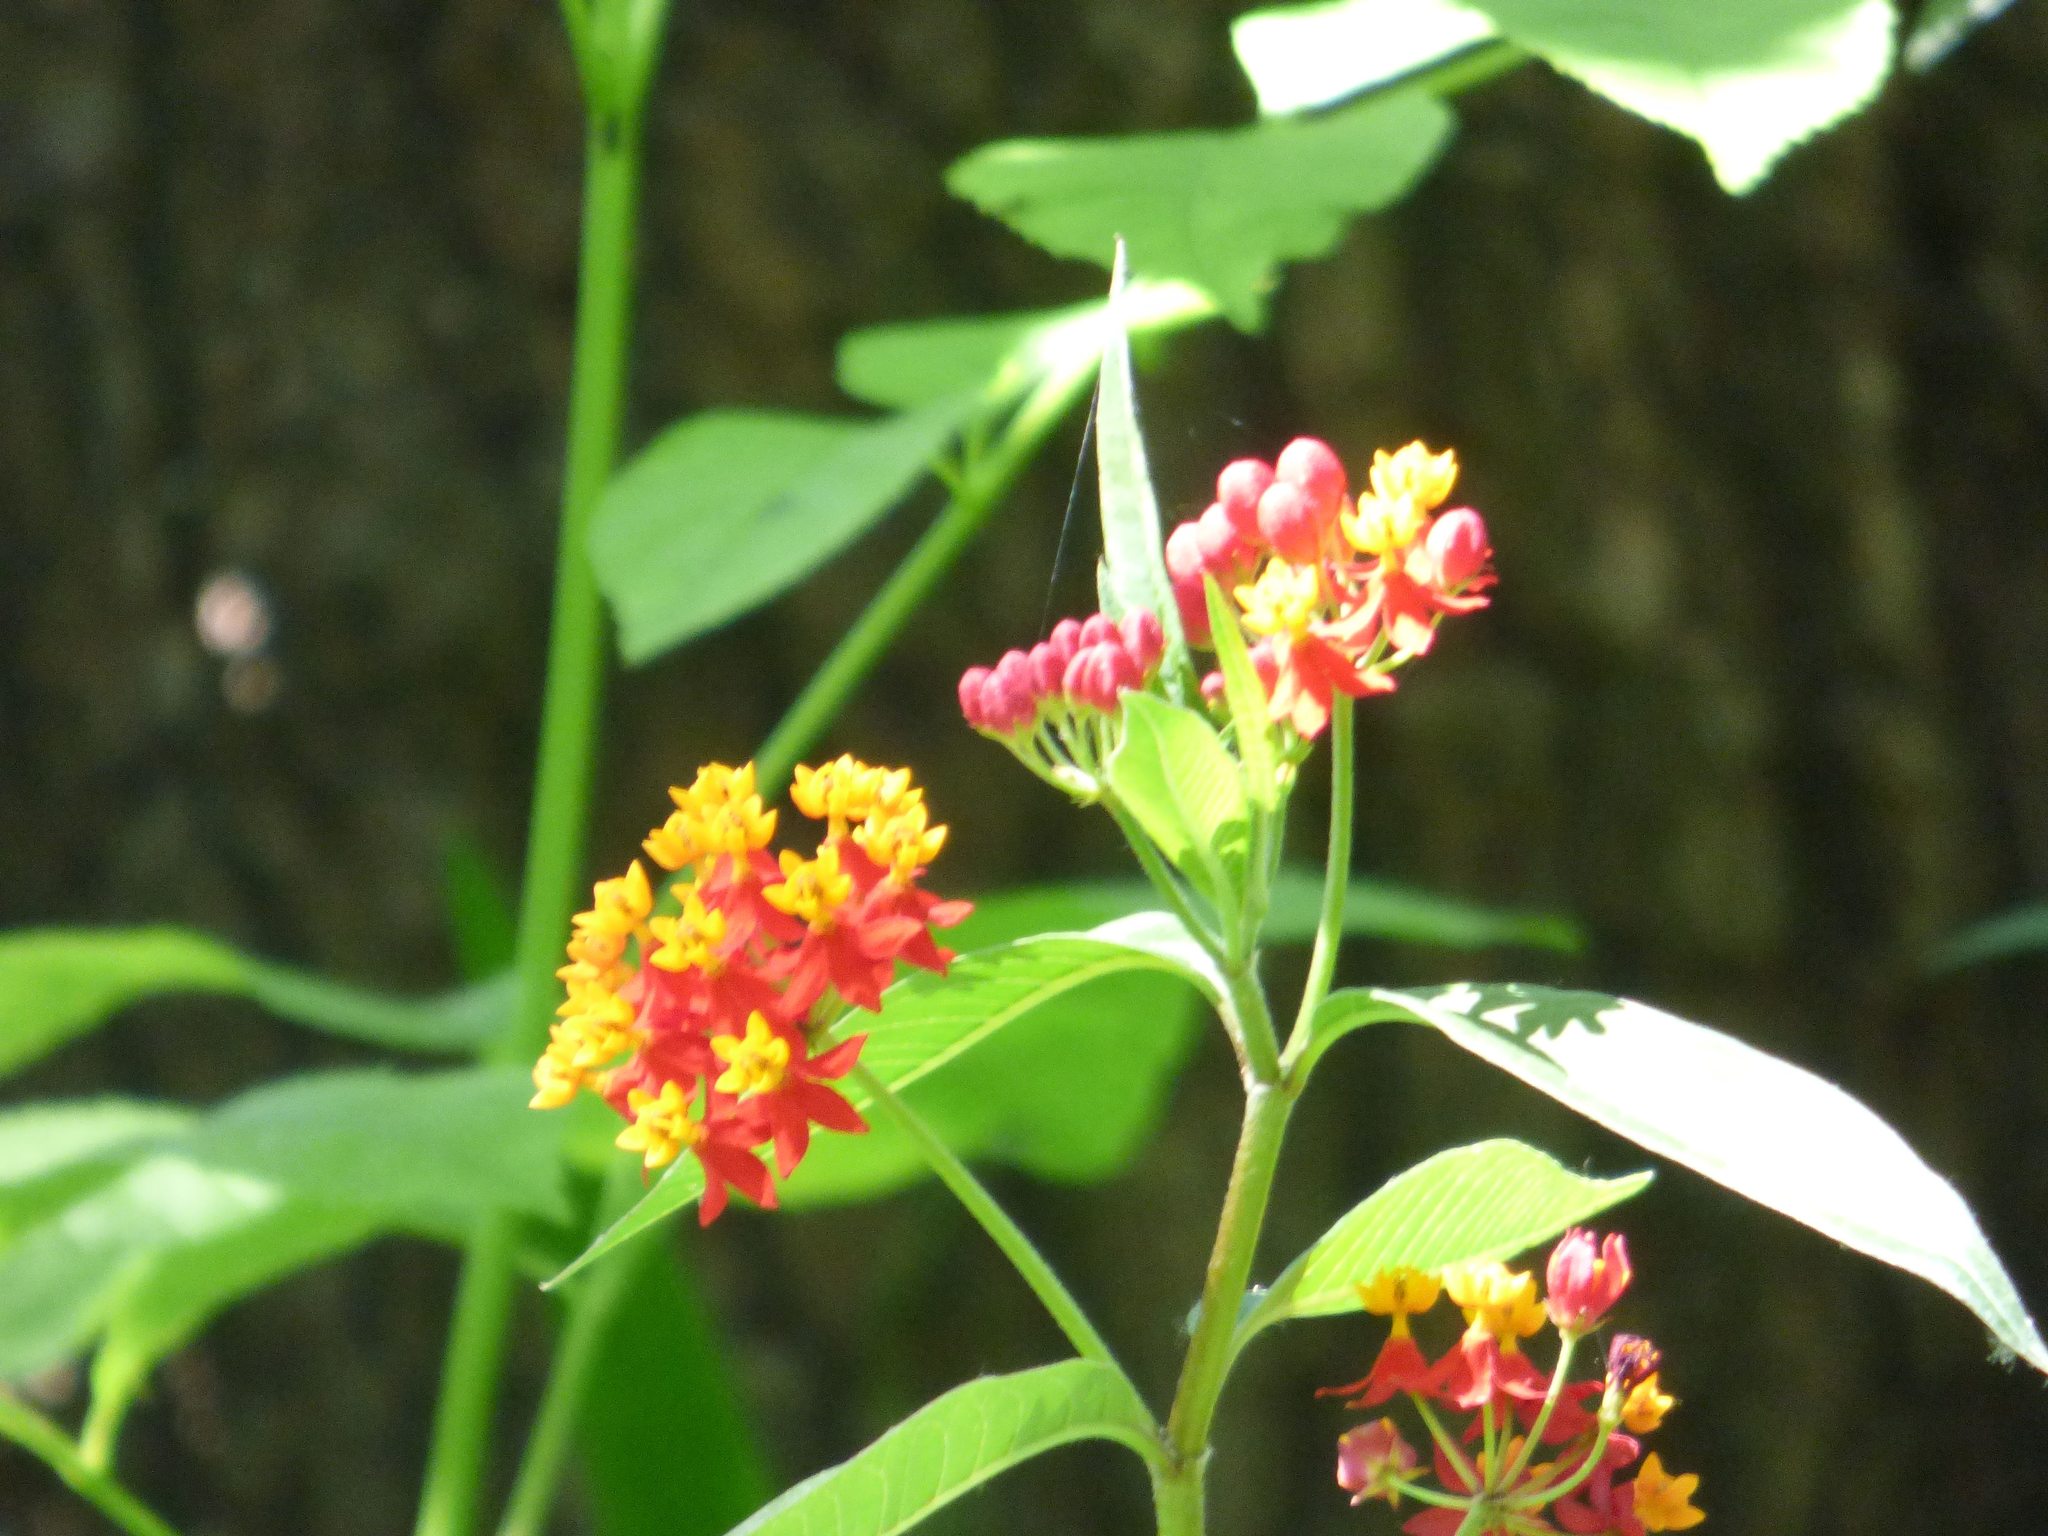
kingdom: Plantae
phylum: Tracheophyta
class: Magnoliopsida
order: Gentianales
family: Apocynaceae
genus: Asclepias
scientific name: Asclepias curassavica
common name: Bloodflower
